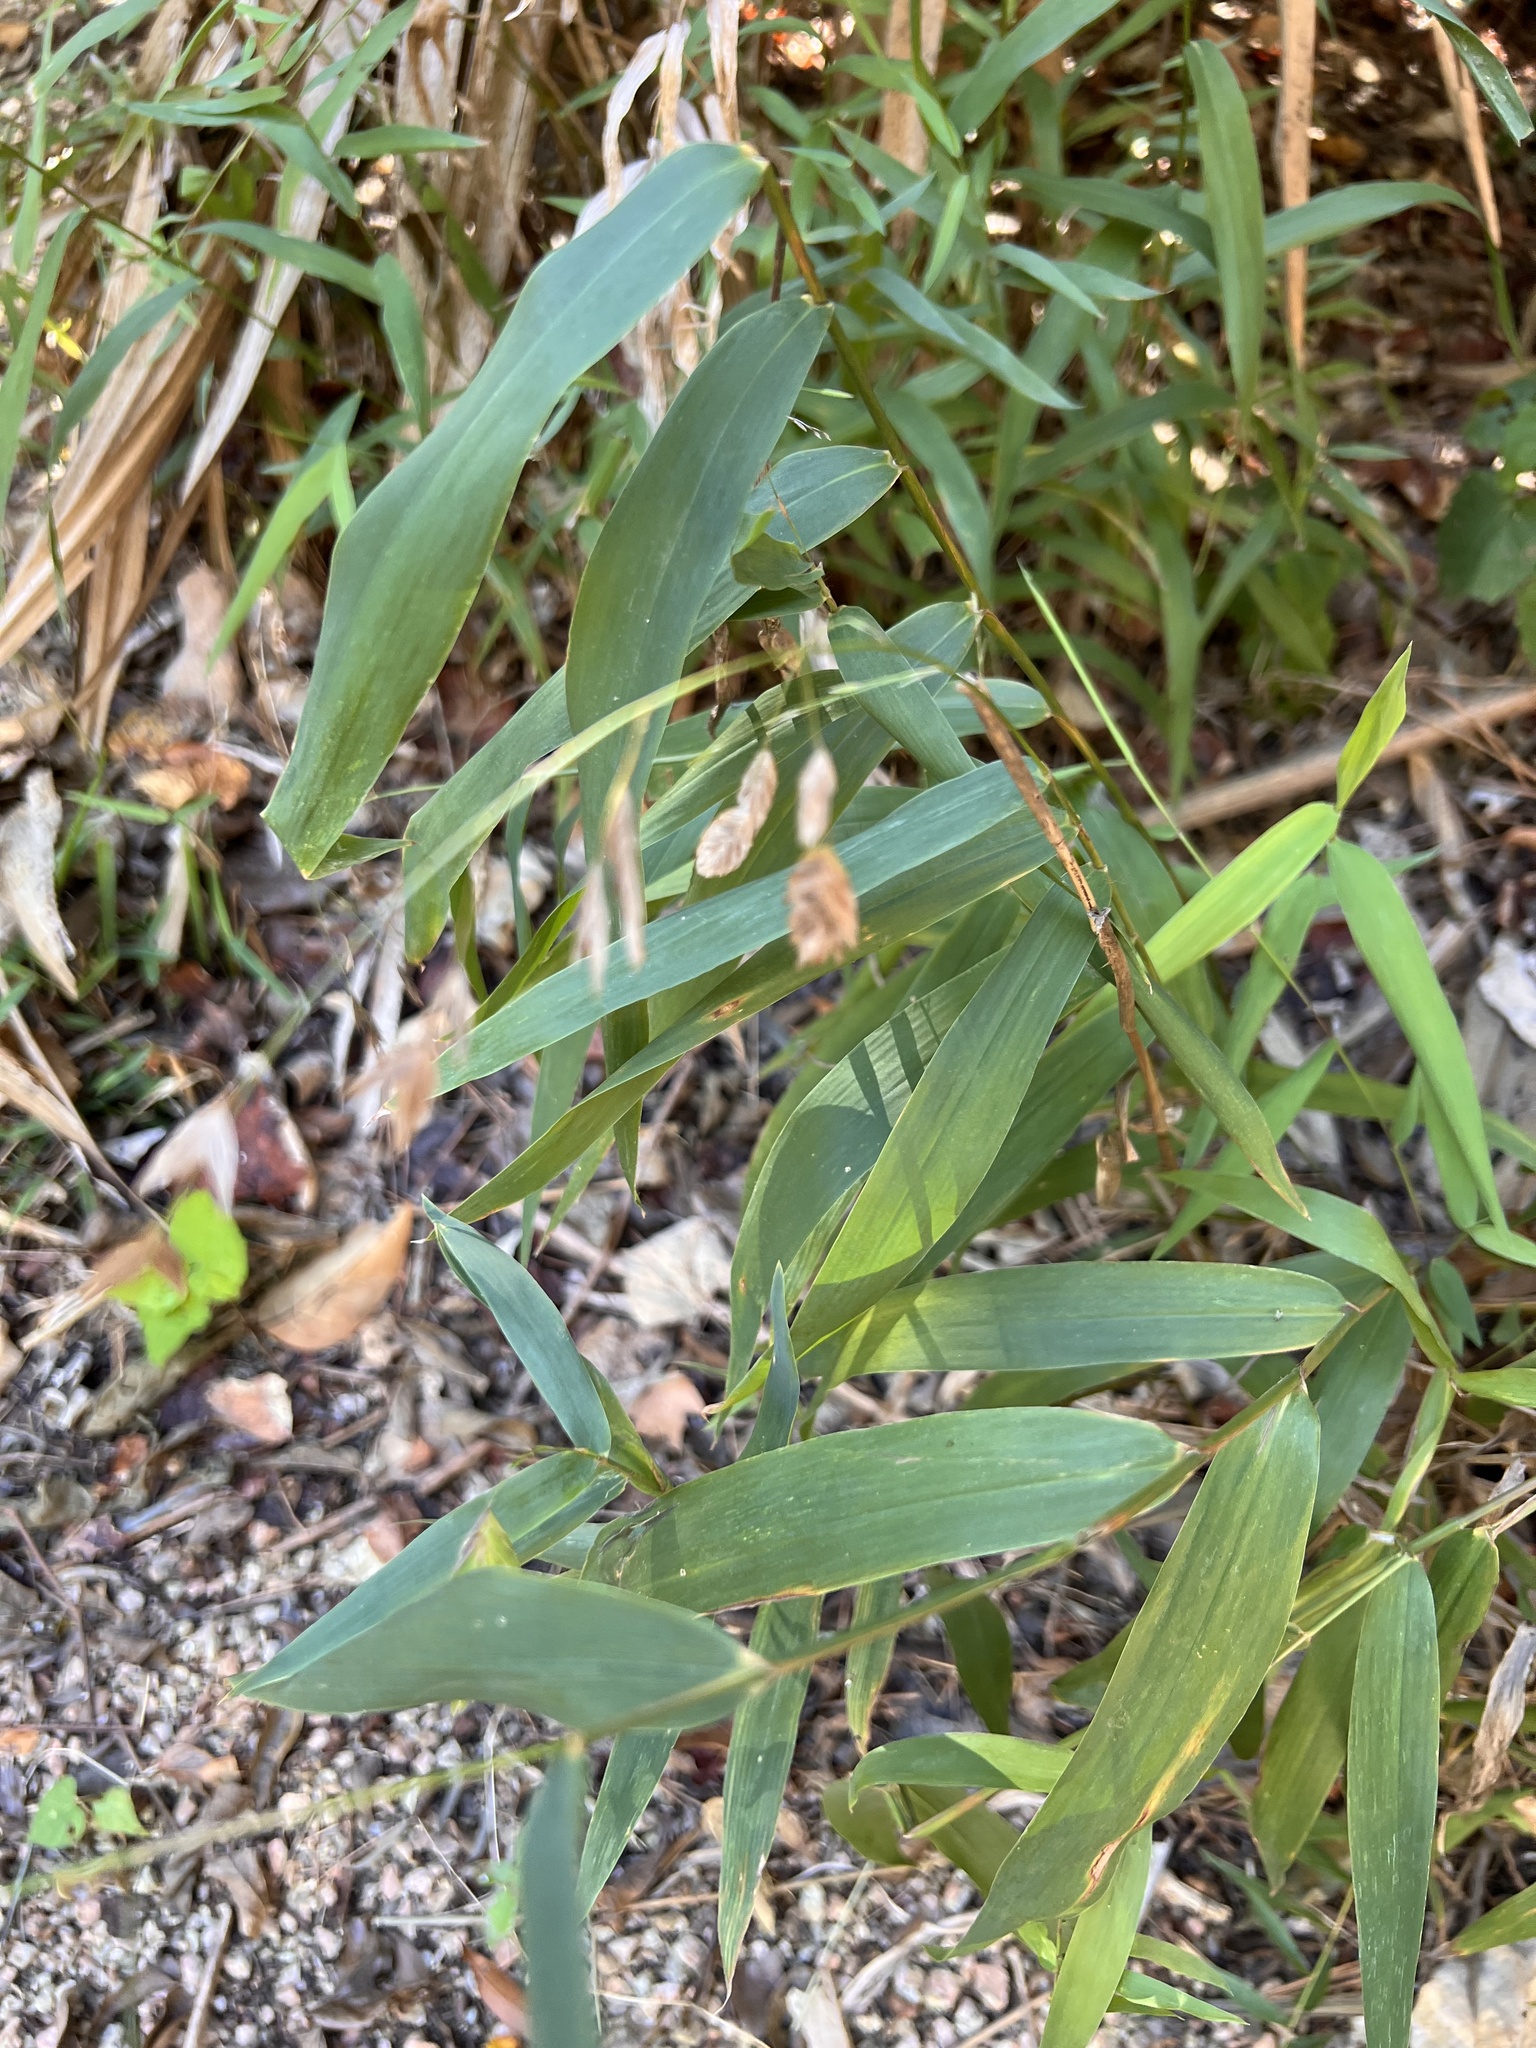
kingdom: Plantae
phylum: Tracheophyta
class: Liliopsida
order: Poales
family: Poaceae
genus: Chasmanthium
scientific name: Chasmanthium latifolium
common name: Broad-leaved chasmanthium
